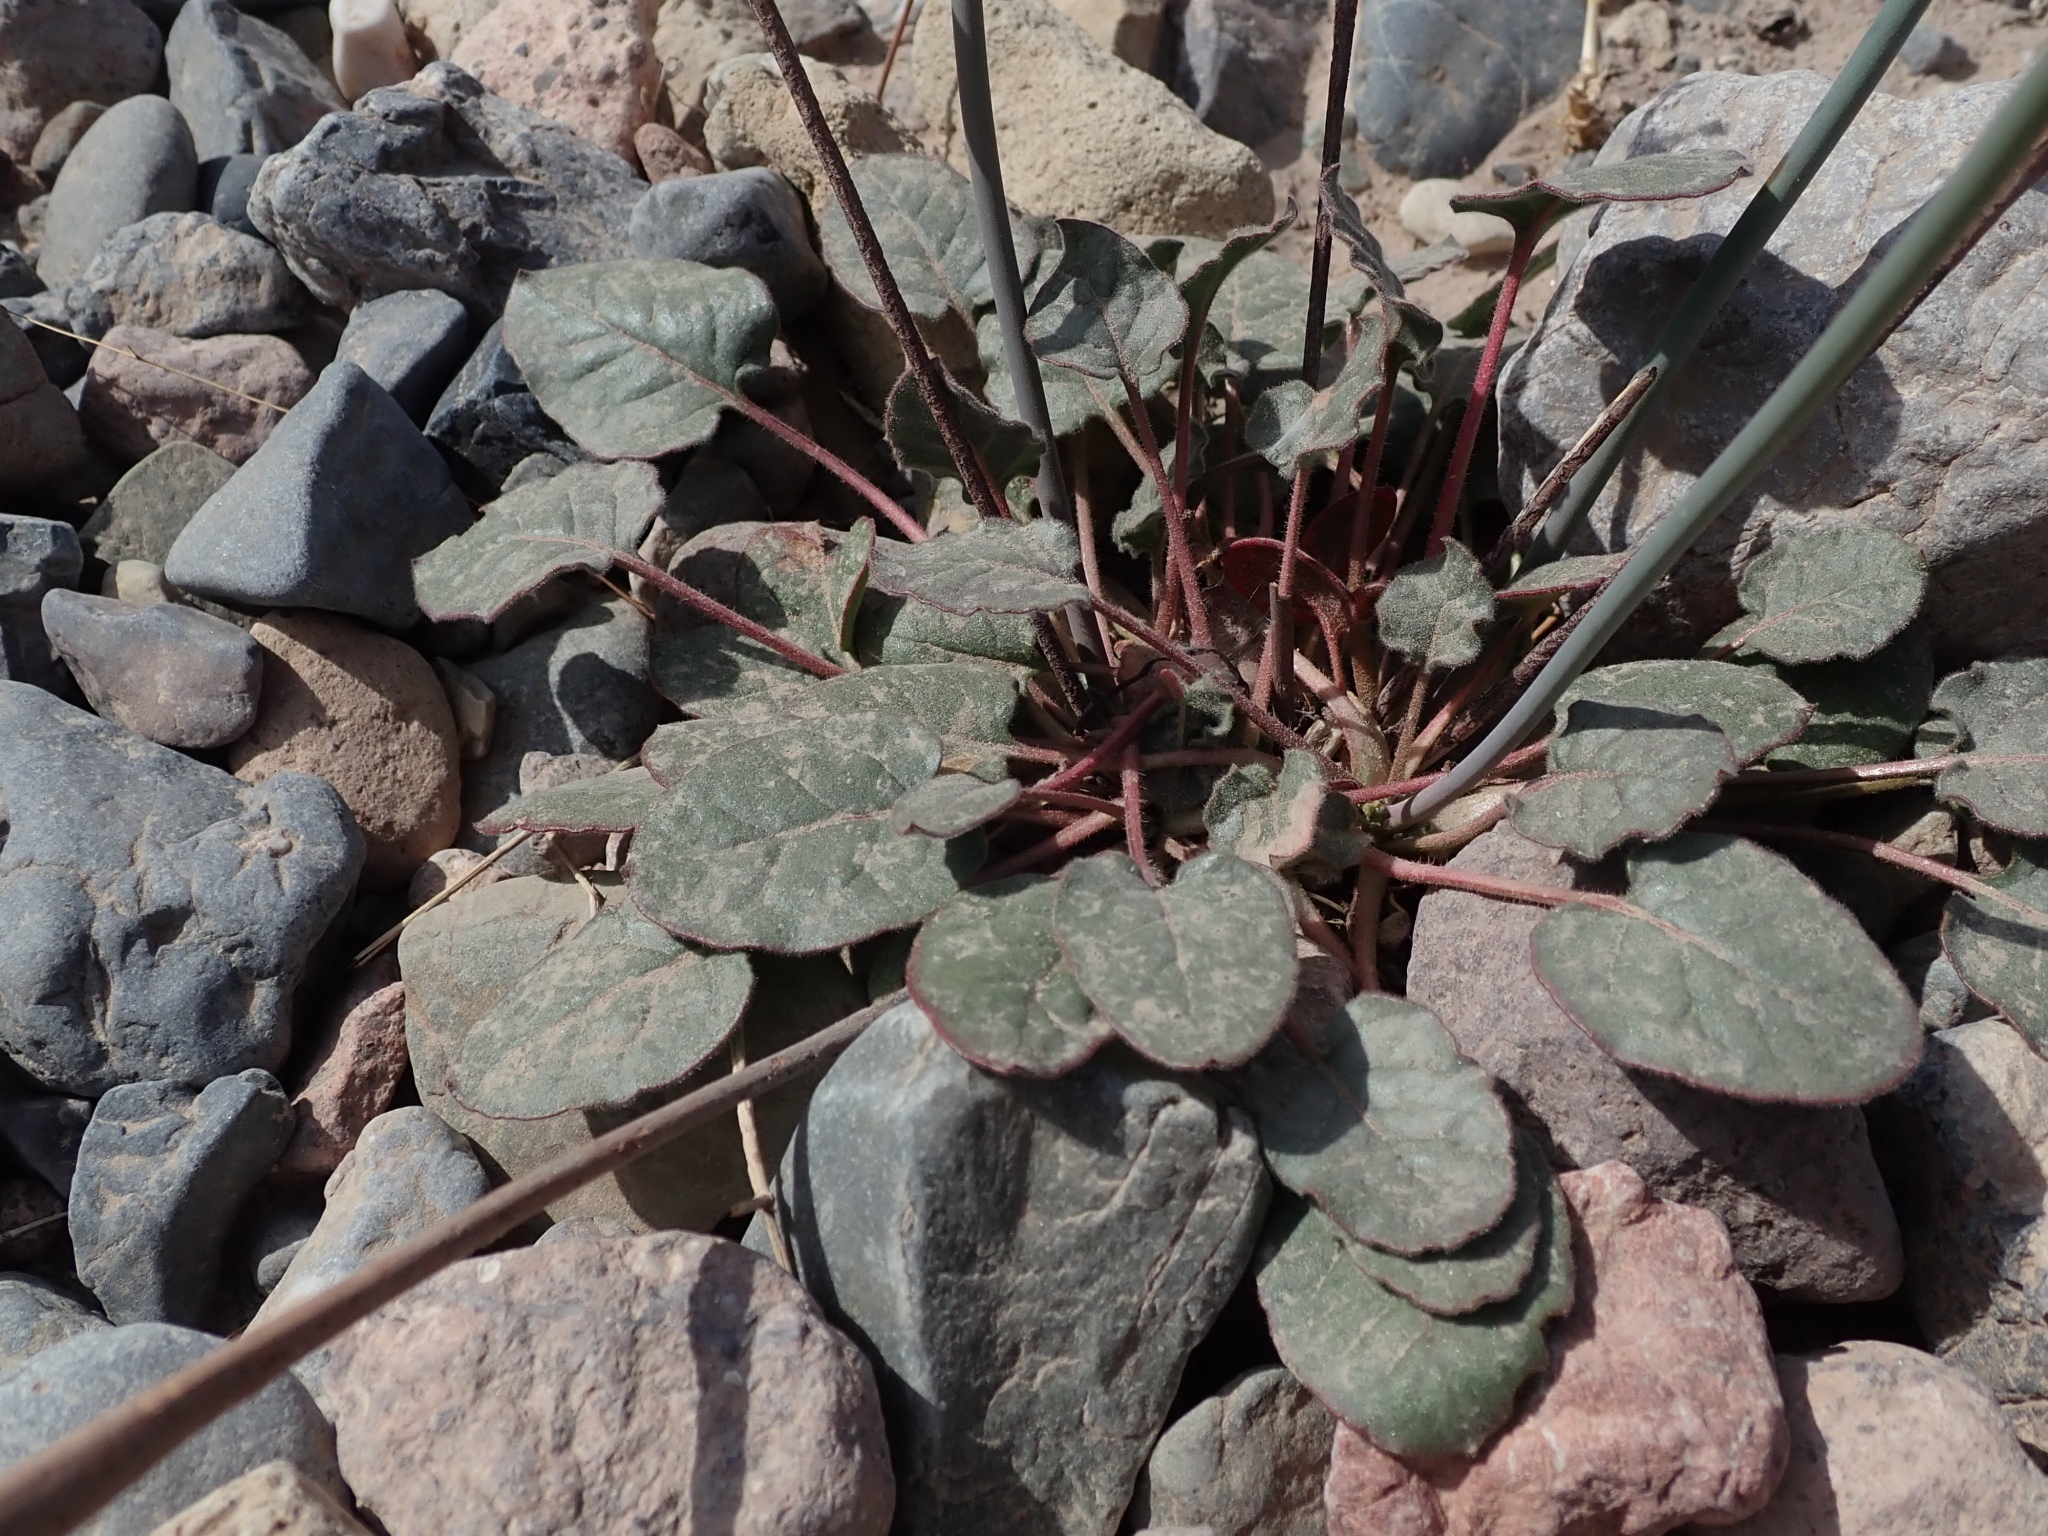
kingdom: Plantae
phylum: Tracheophyta
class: Magnoliopsida
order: Caryophyllales
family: Polygonaceae
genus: Eriogonum
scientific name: Eriogonum inflatum
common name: Desert trumpet
